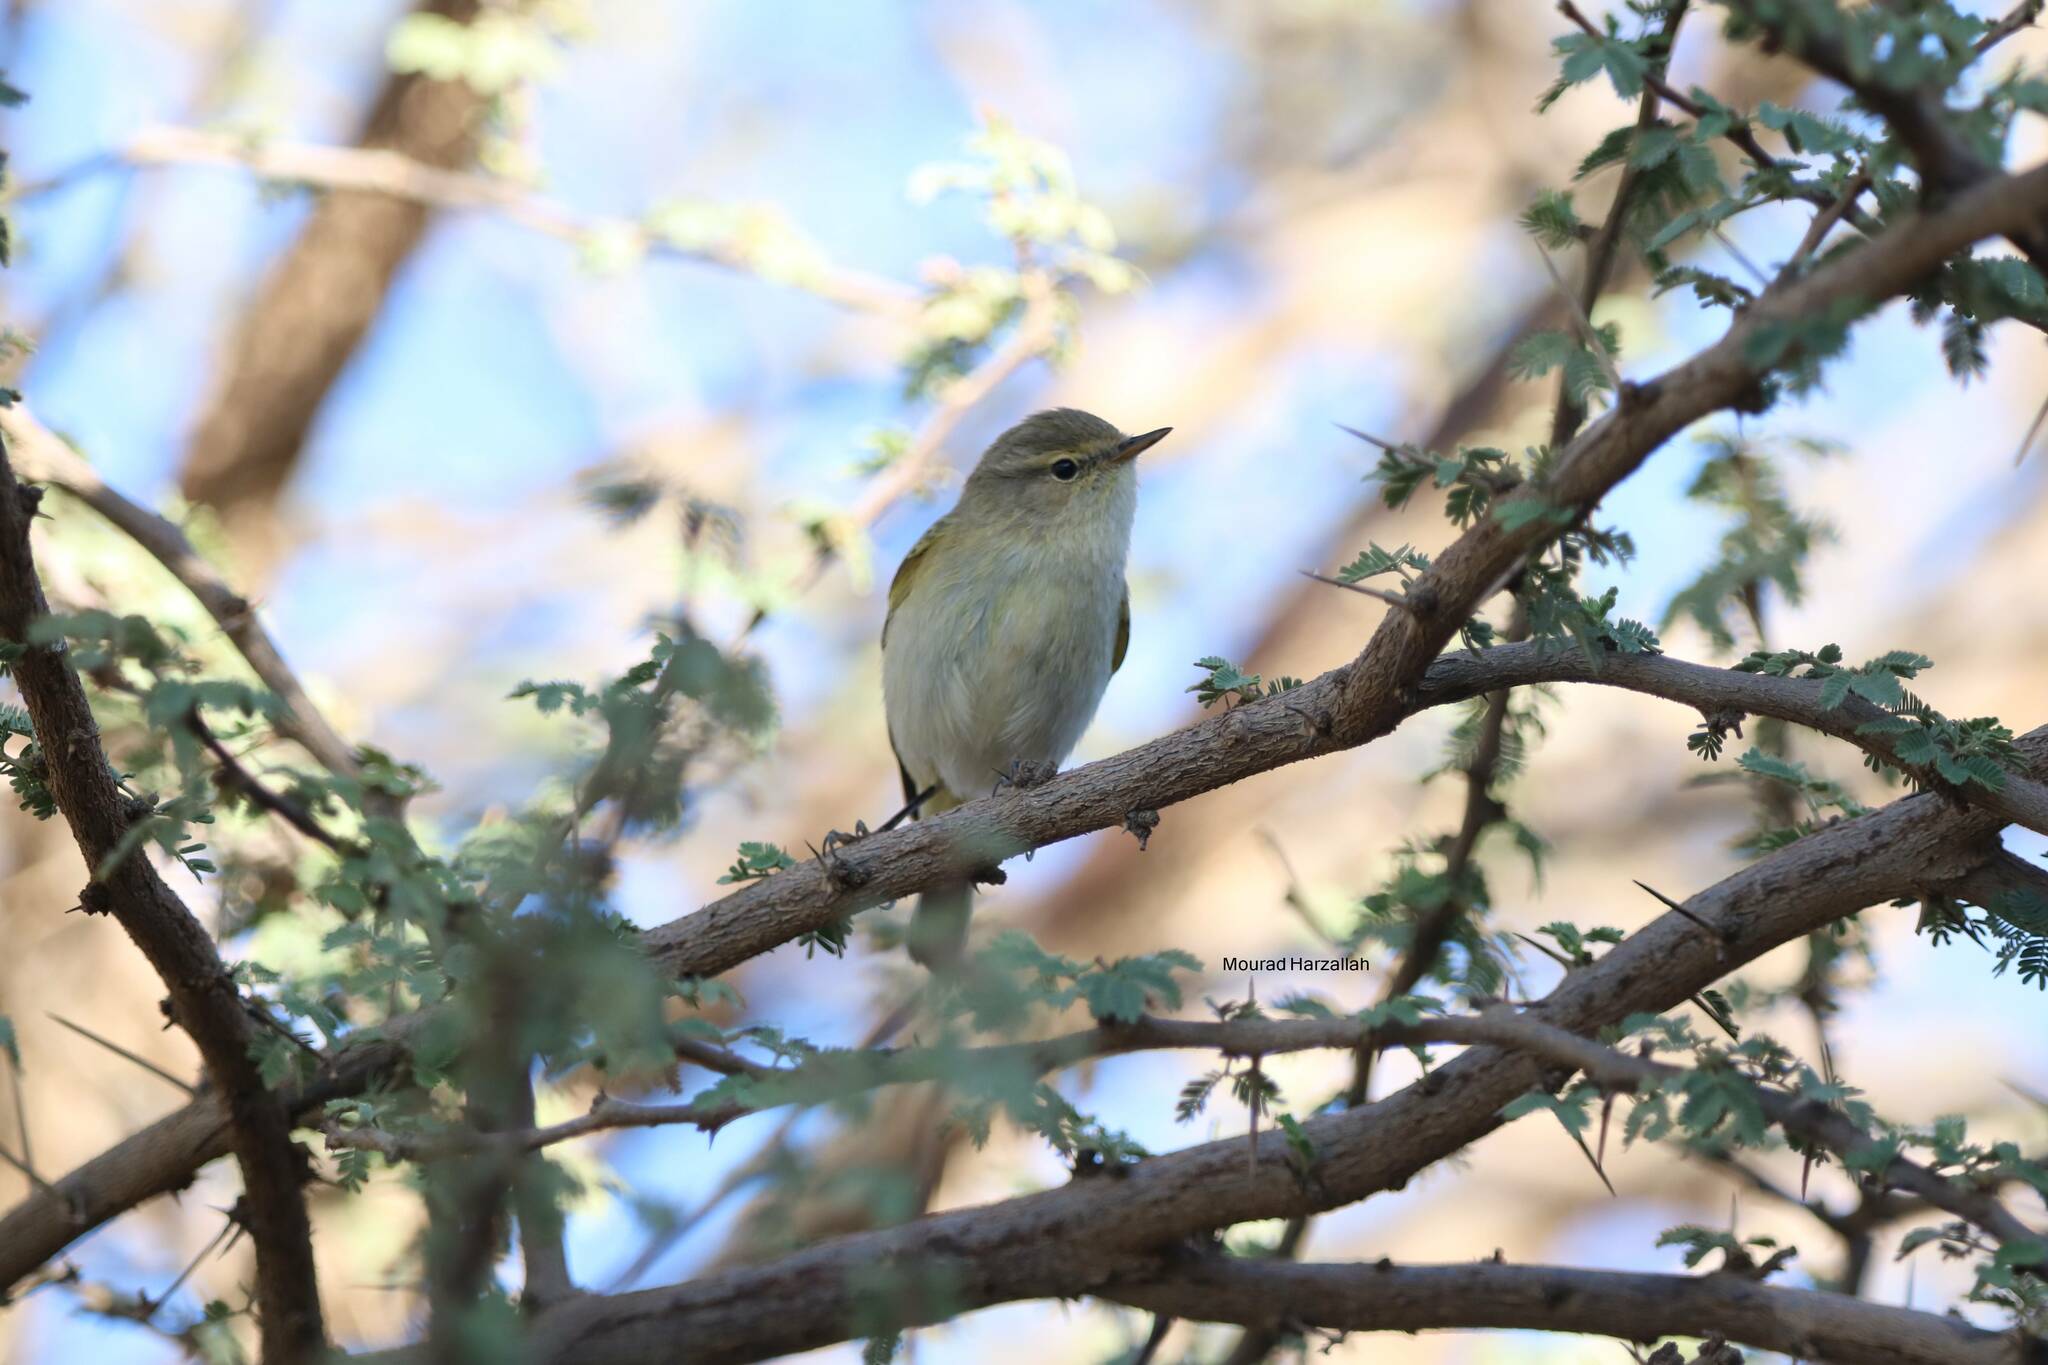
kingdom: Animalia
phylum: Chordata
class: Aves
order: Passeriformes
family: Phylloscopidae
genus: Phylloscopus
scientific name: Phylloscopus collybita
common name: Common chiffchaff
